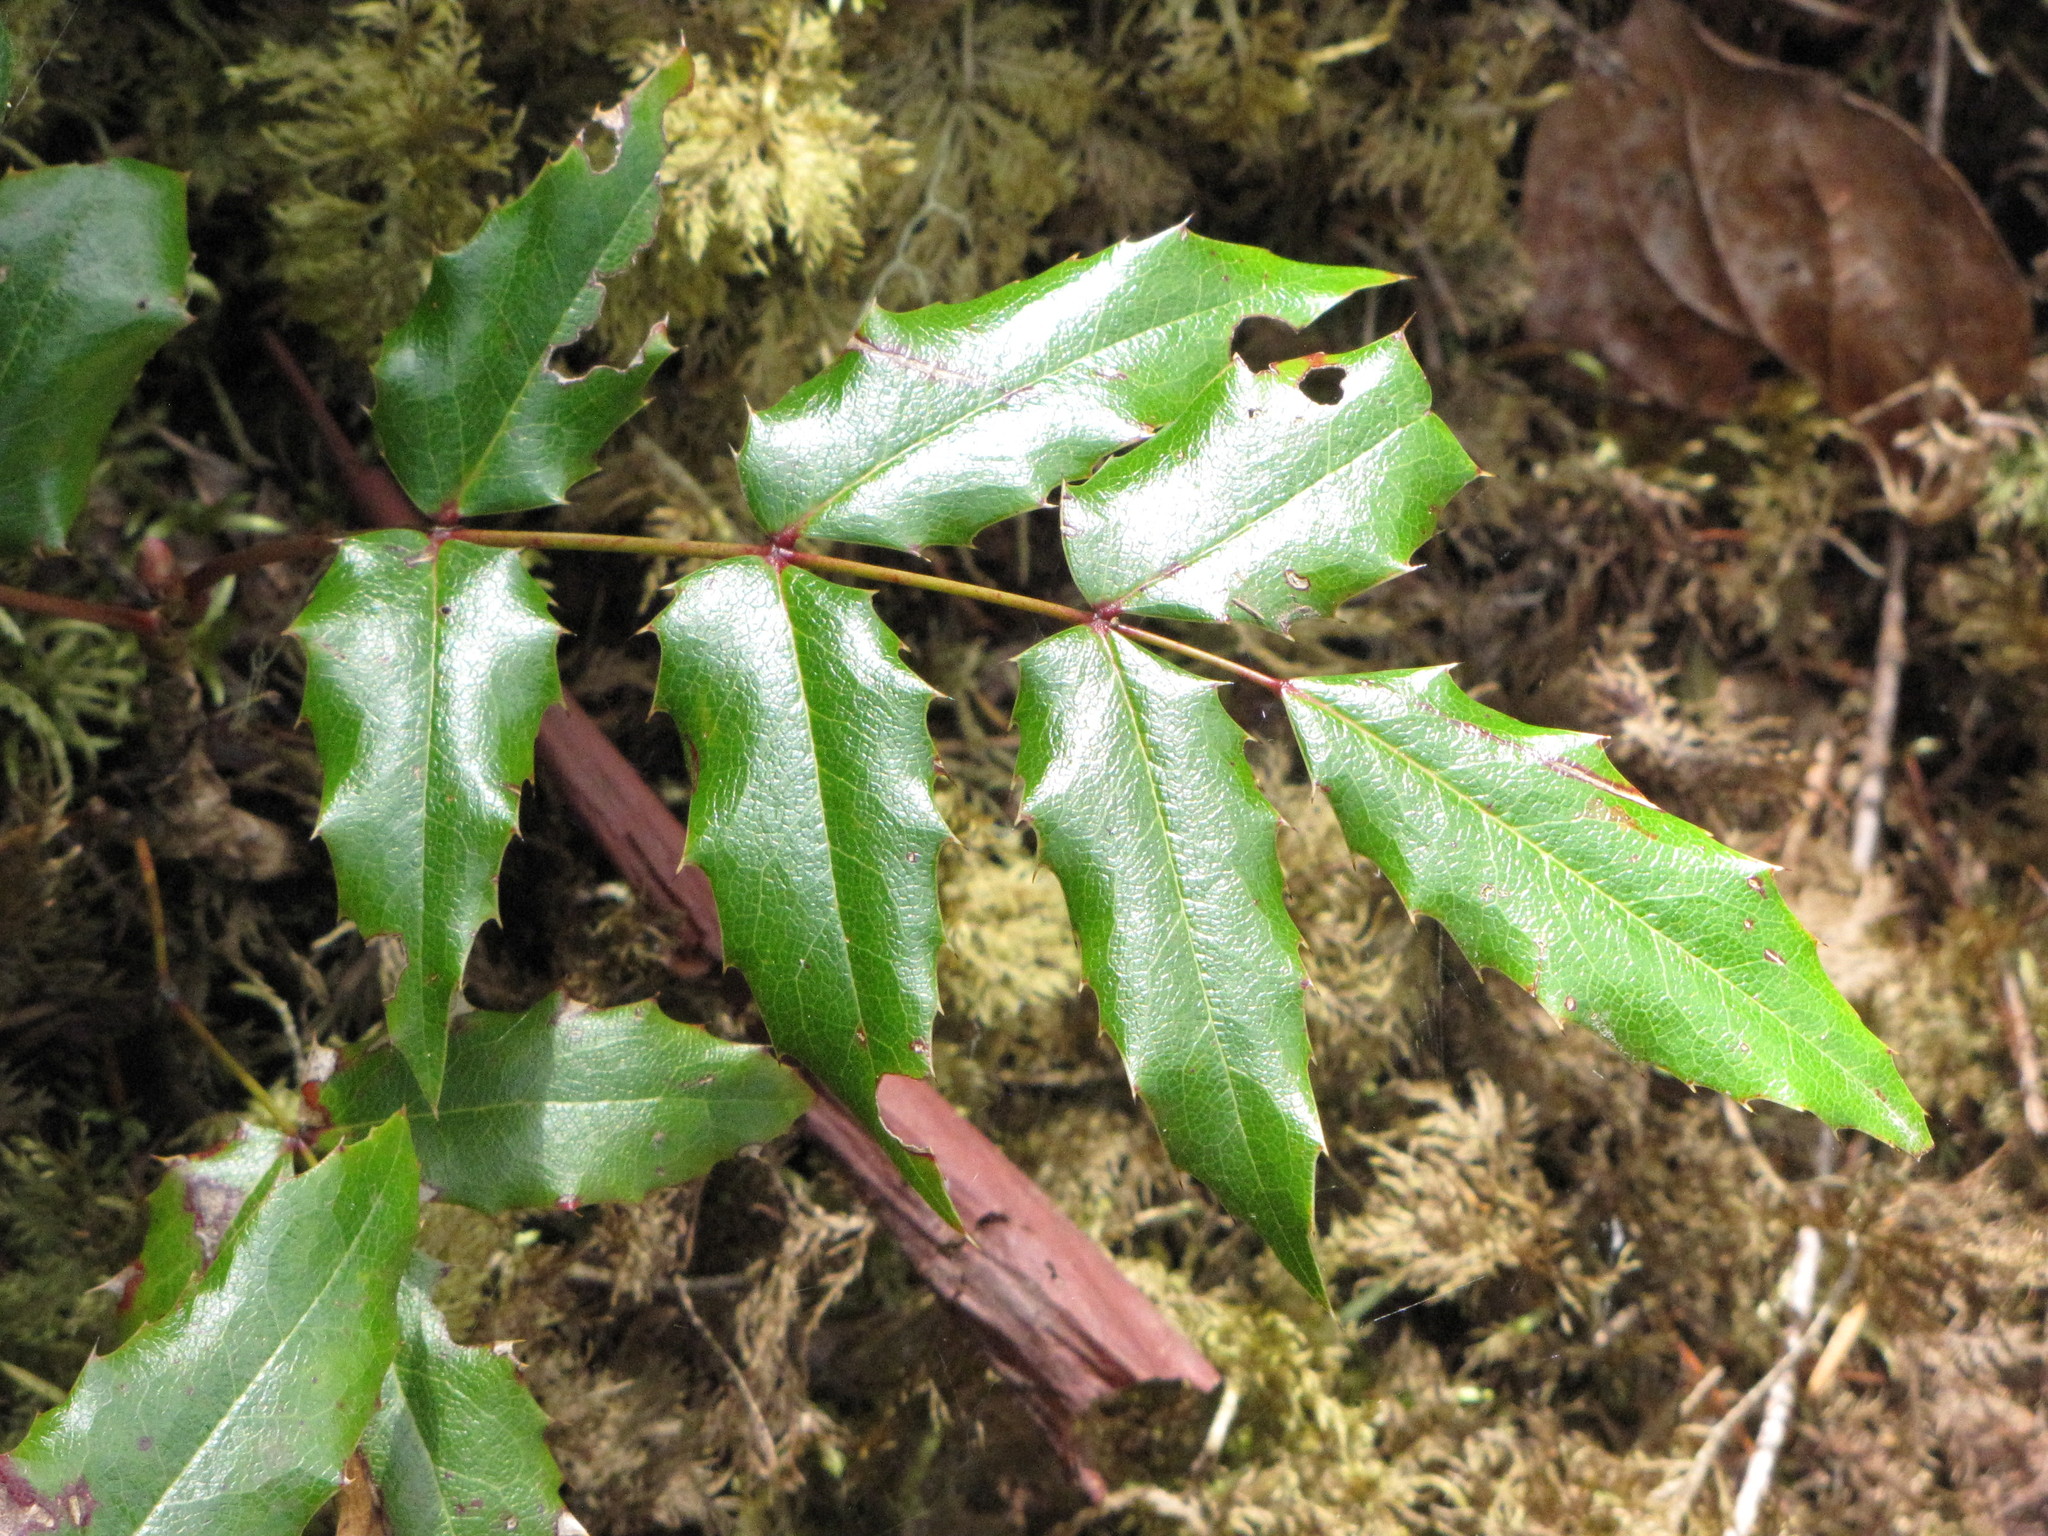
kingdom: Plantae
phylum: Tracheophyta
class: Magnoliopsida
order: Ranunculales
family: Berberidaceae
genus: Mahonia
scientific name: Mahonia aquifolium
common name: Oregon-grape
